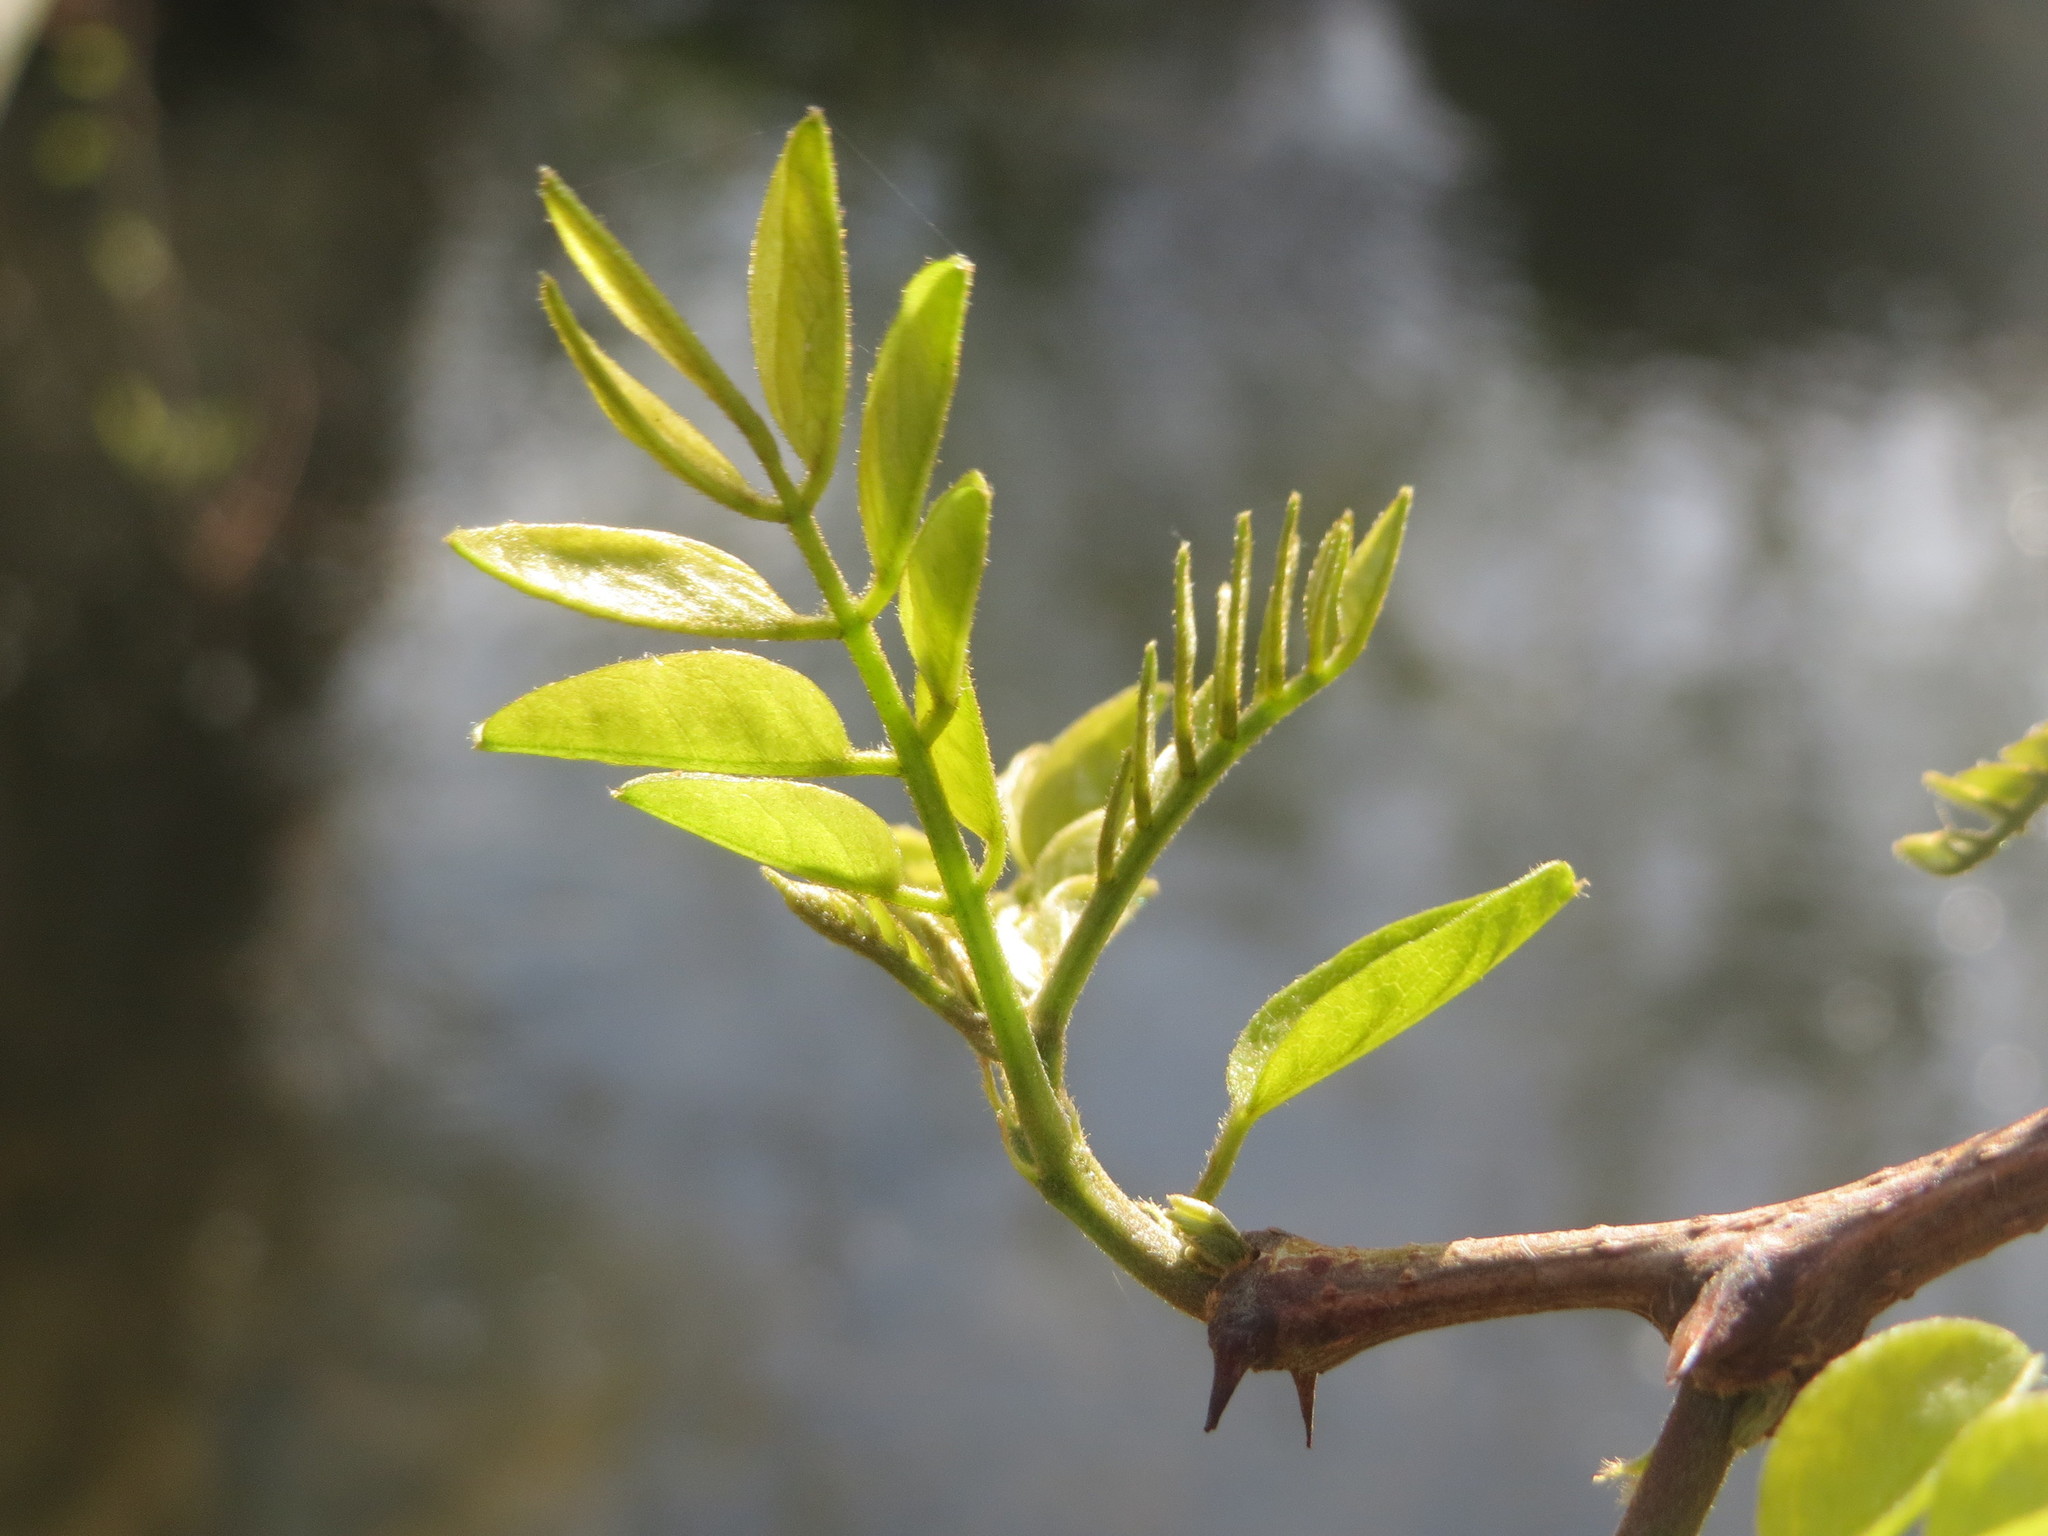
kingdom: Plantae
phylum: Tracheophyta
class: Magnoliopsida
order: Fabales
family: Fabaceae
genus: Robinia
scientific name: Robinia pseudoacacia
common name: Black locust
